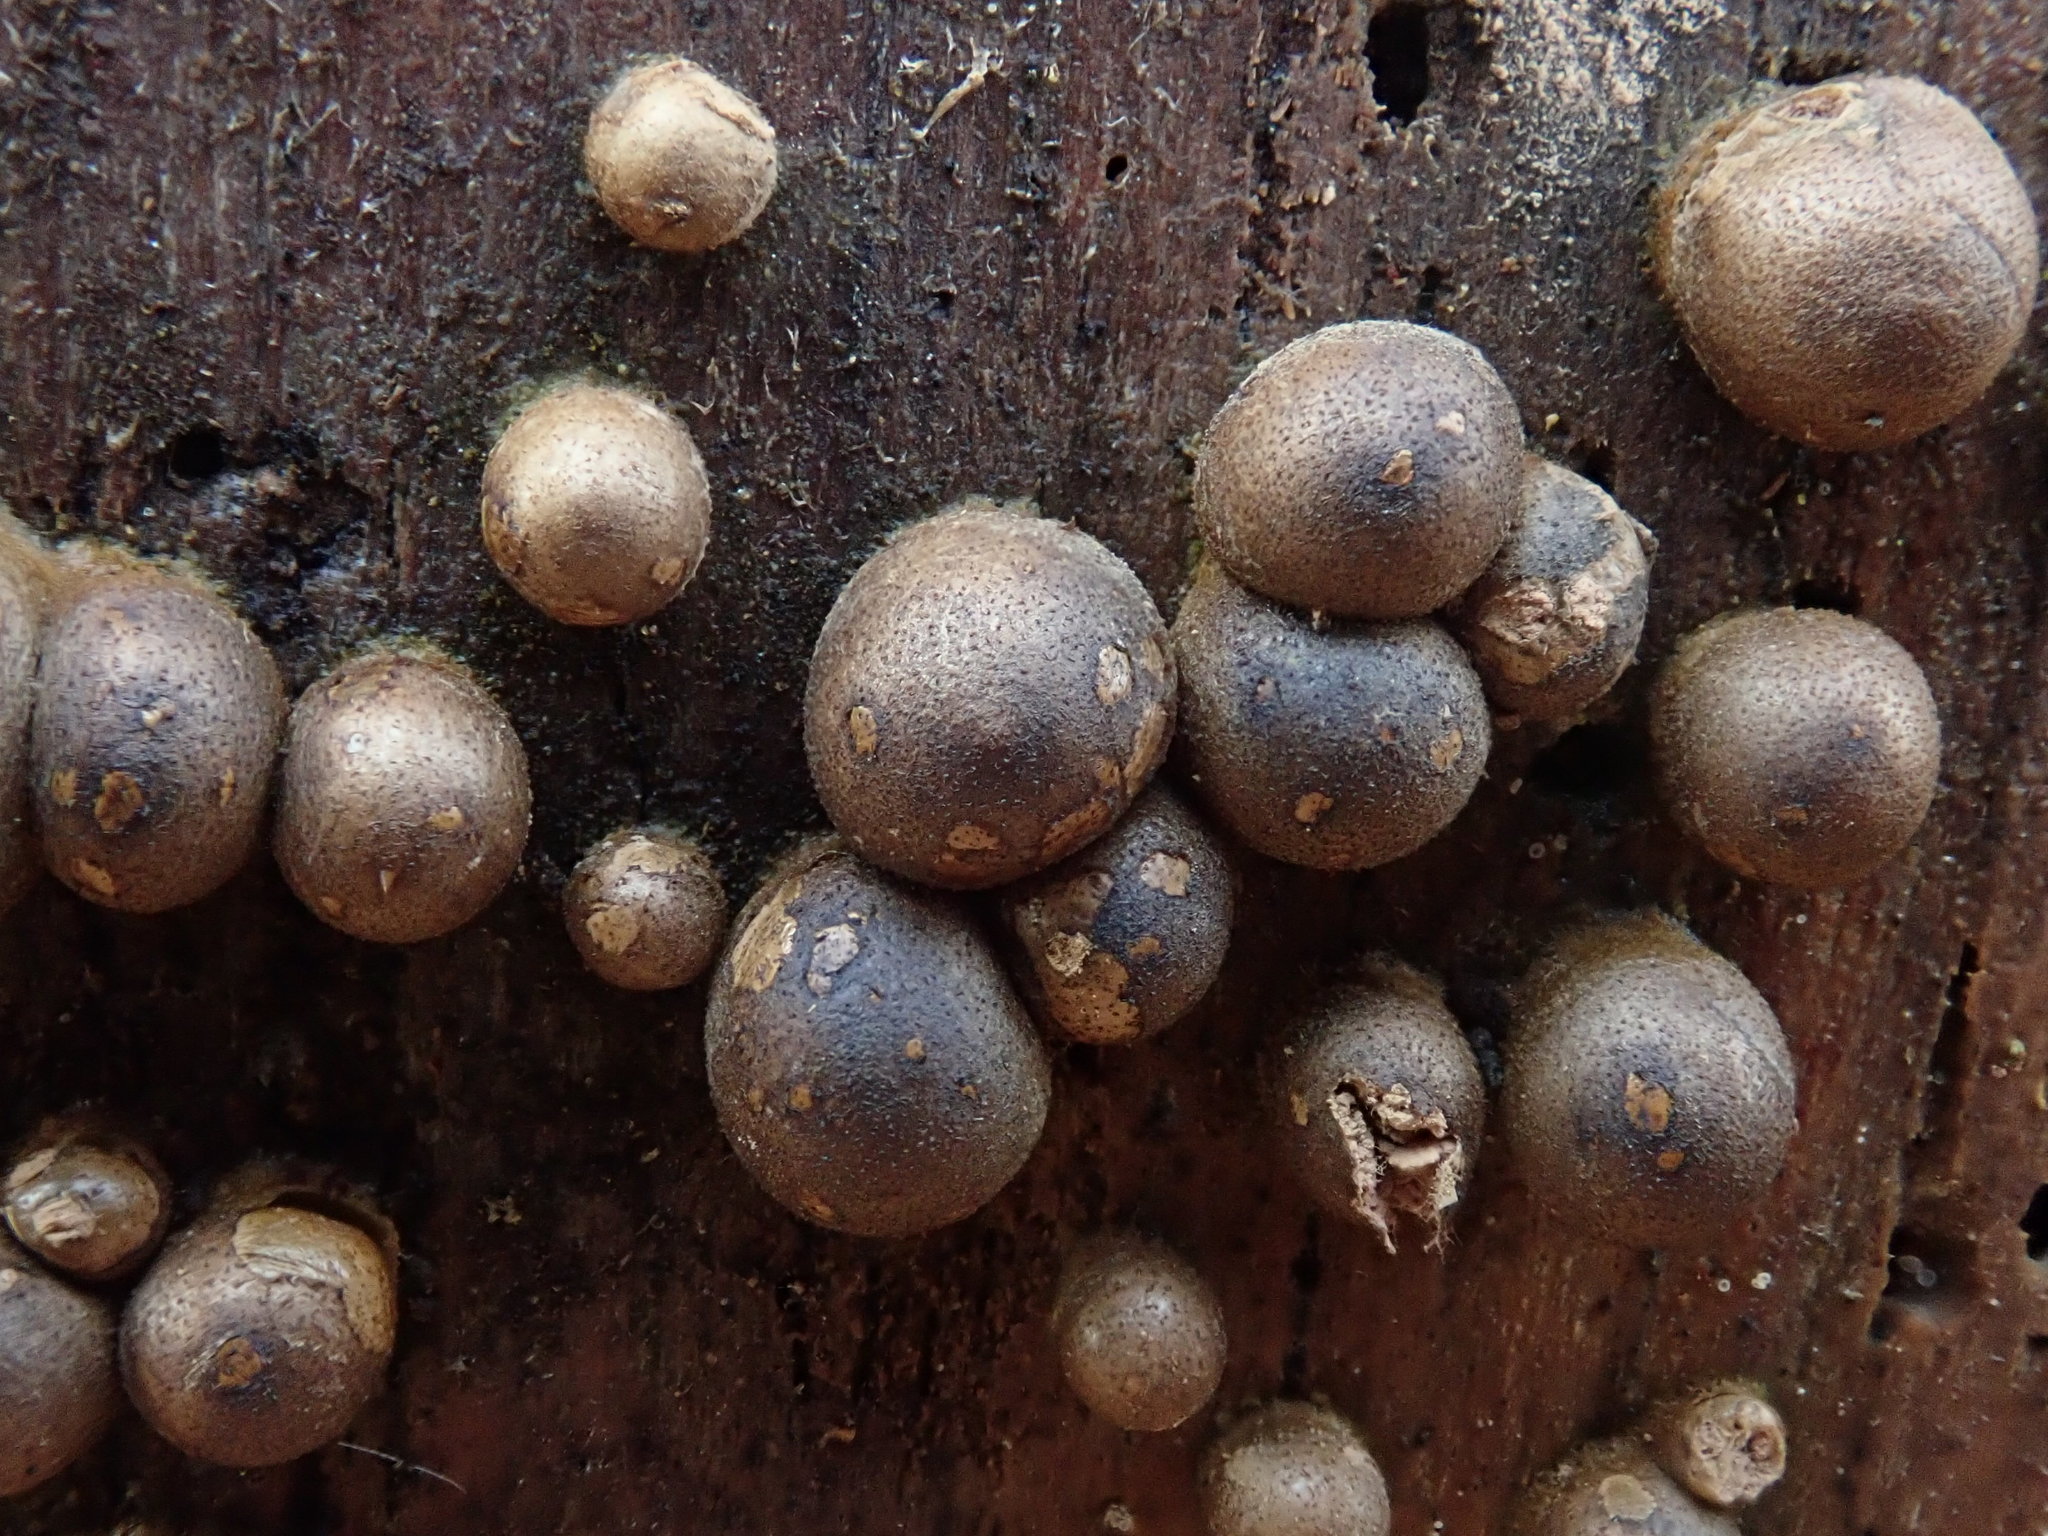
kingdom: Protozoa
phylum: Mycetozoa
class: Myxomycetes
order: Cribrariales
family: Tubiferaceae
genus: Lycogala
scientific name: Lycogala epidendrum
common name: Wolf's milk
